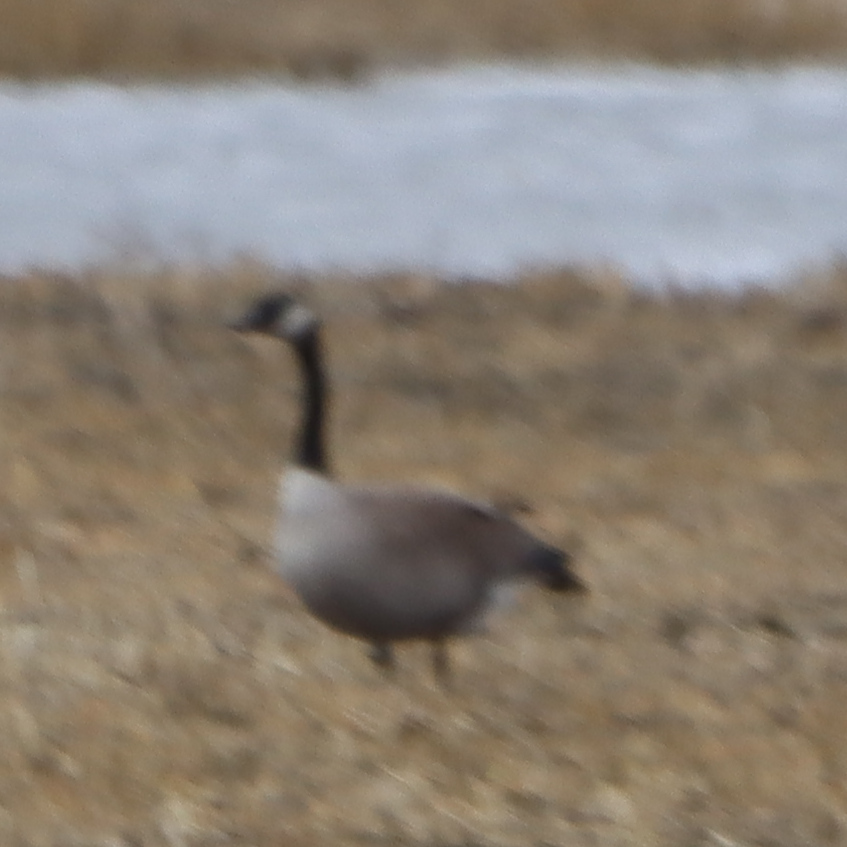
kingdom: Animalia
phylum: Chordata
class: Aves
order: Anseriformes
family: Anatidae
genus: Branta
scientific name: Branta canadensis
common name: Canada goose
